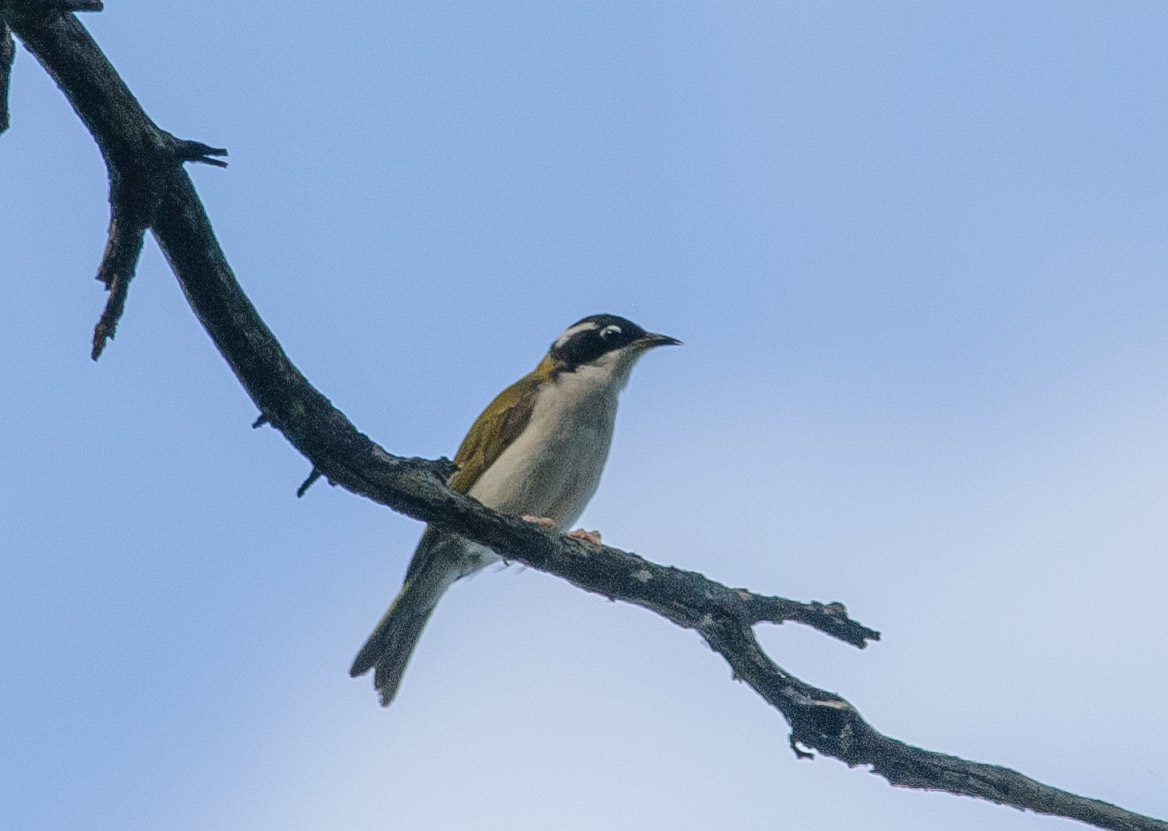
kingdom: Animalia
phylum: Chordata
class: Aves
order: Passeriformes
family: Meliphagidae
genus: Melithreptus
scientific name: Melithreptus albogularis
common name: White-throated honeyeater
